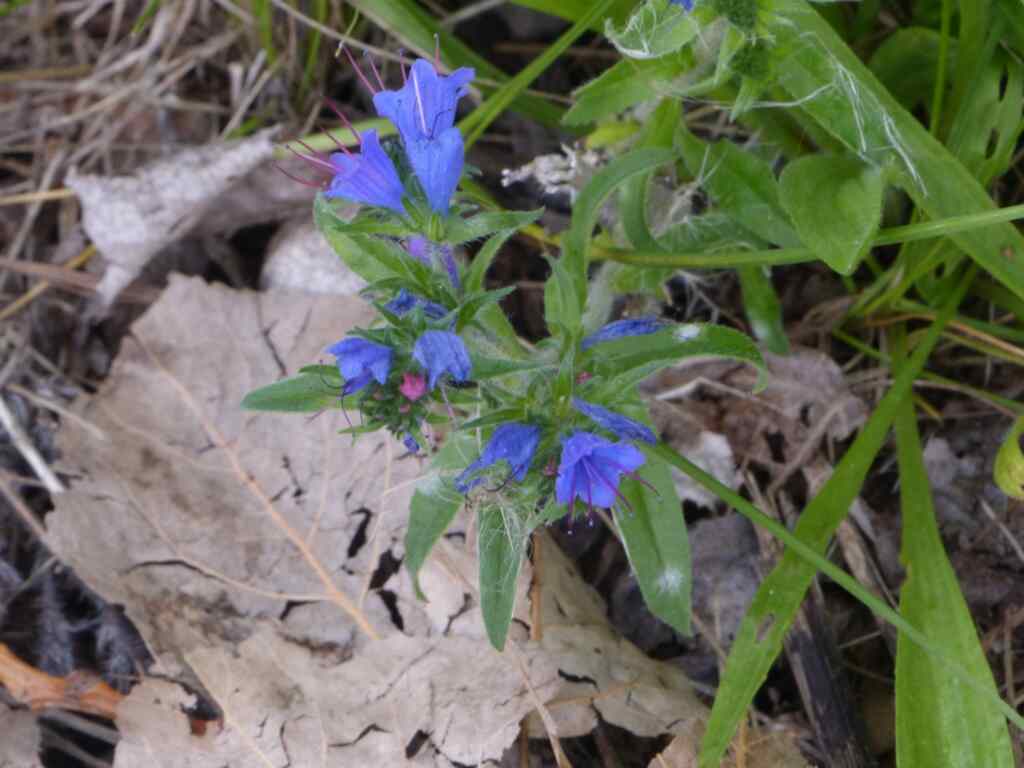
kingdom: Plantae
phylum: Tracheophyta
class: Magnoliopsida
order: Boraginales
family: Boraginaceae
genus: Echium
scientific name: Echium vulgare
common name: Common viper's bugloss
